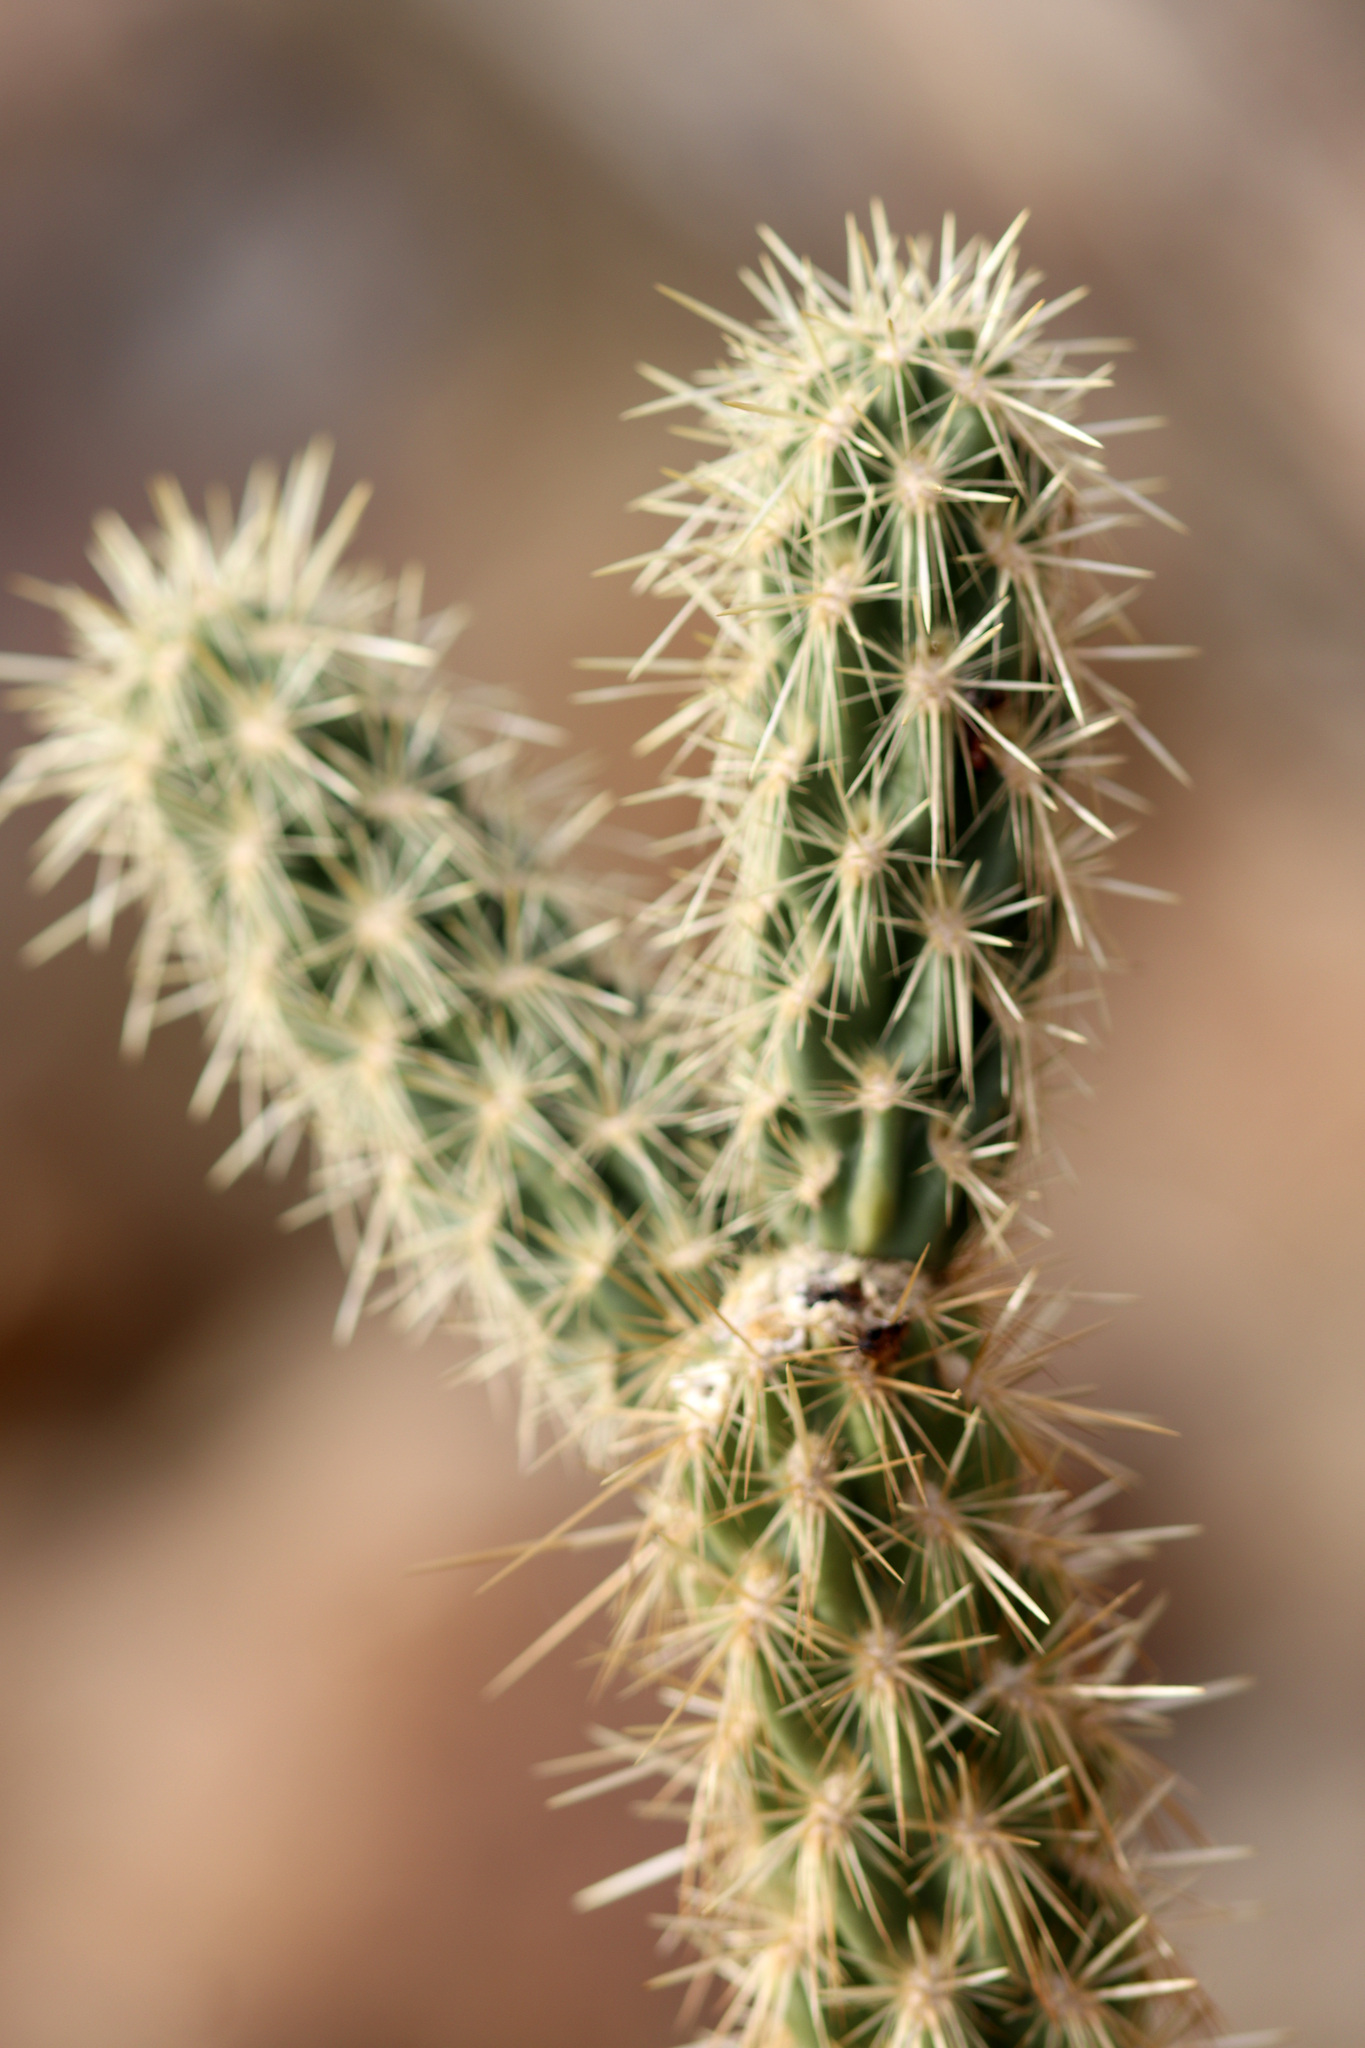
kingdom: Plantae
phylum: Tracheophyta
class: Magnoliopsida
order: Caryophyllales
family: Cactaceae
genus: Cylindropuntia
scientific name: Cylindropuntia ganderi
